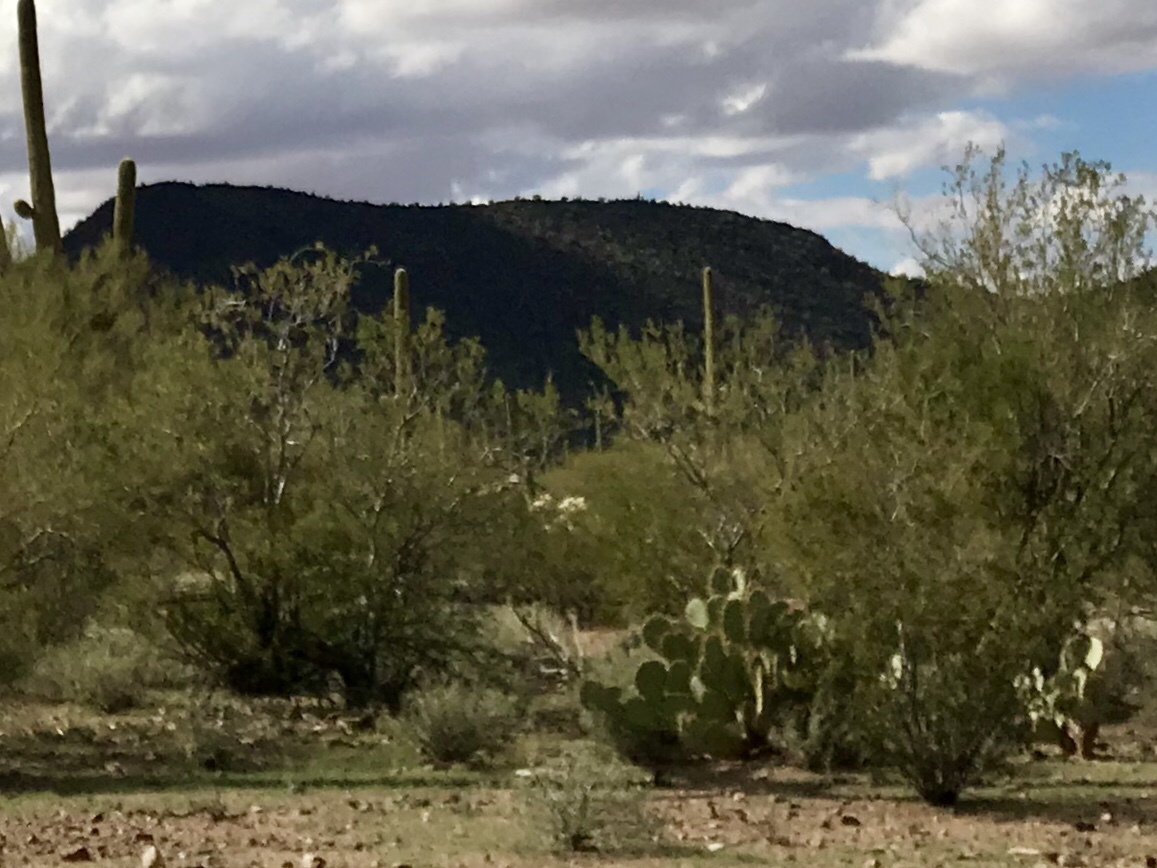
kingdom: Plantae
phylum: Tracheophyta
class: Magnoliopsida
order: Zygophyllales
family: Zygophyllaceae
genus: Larrea
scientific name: Larrea tridentata
